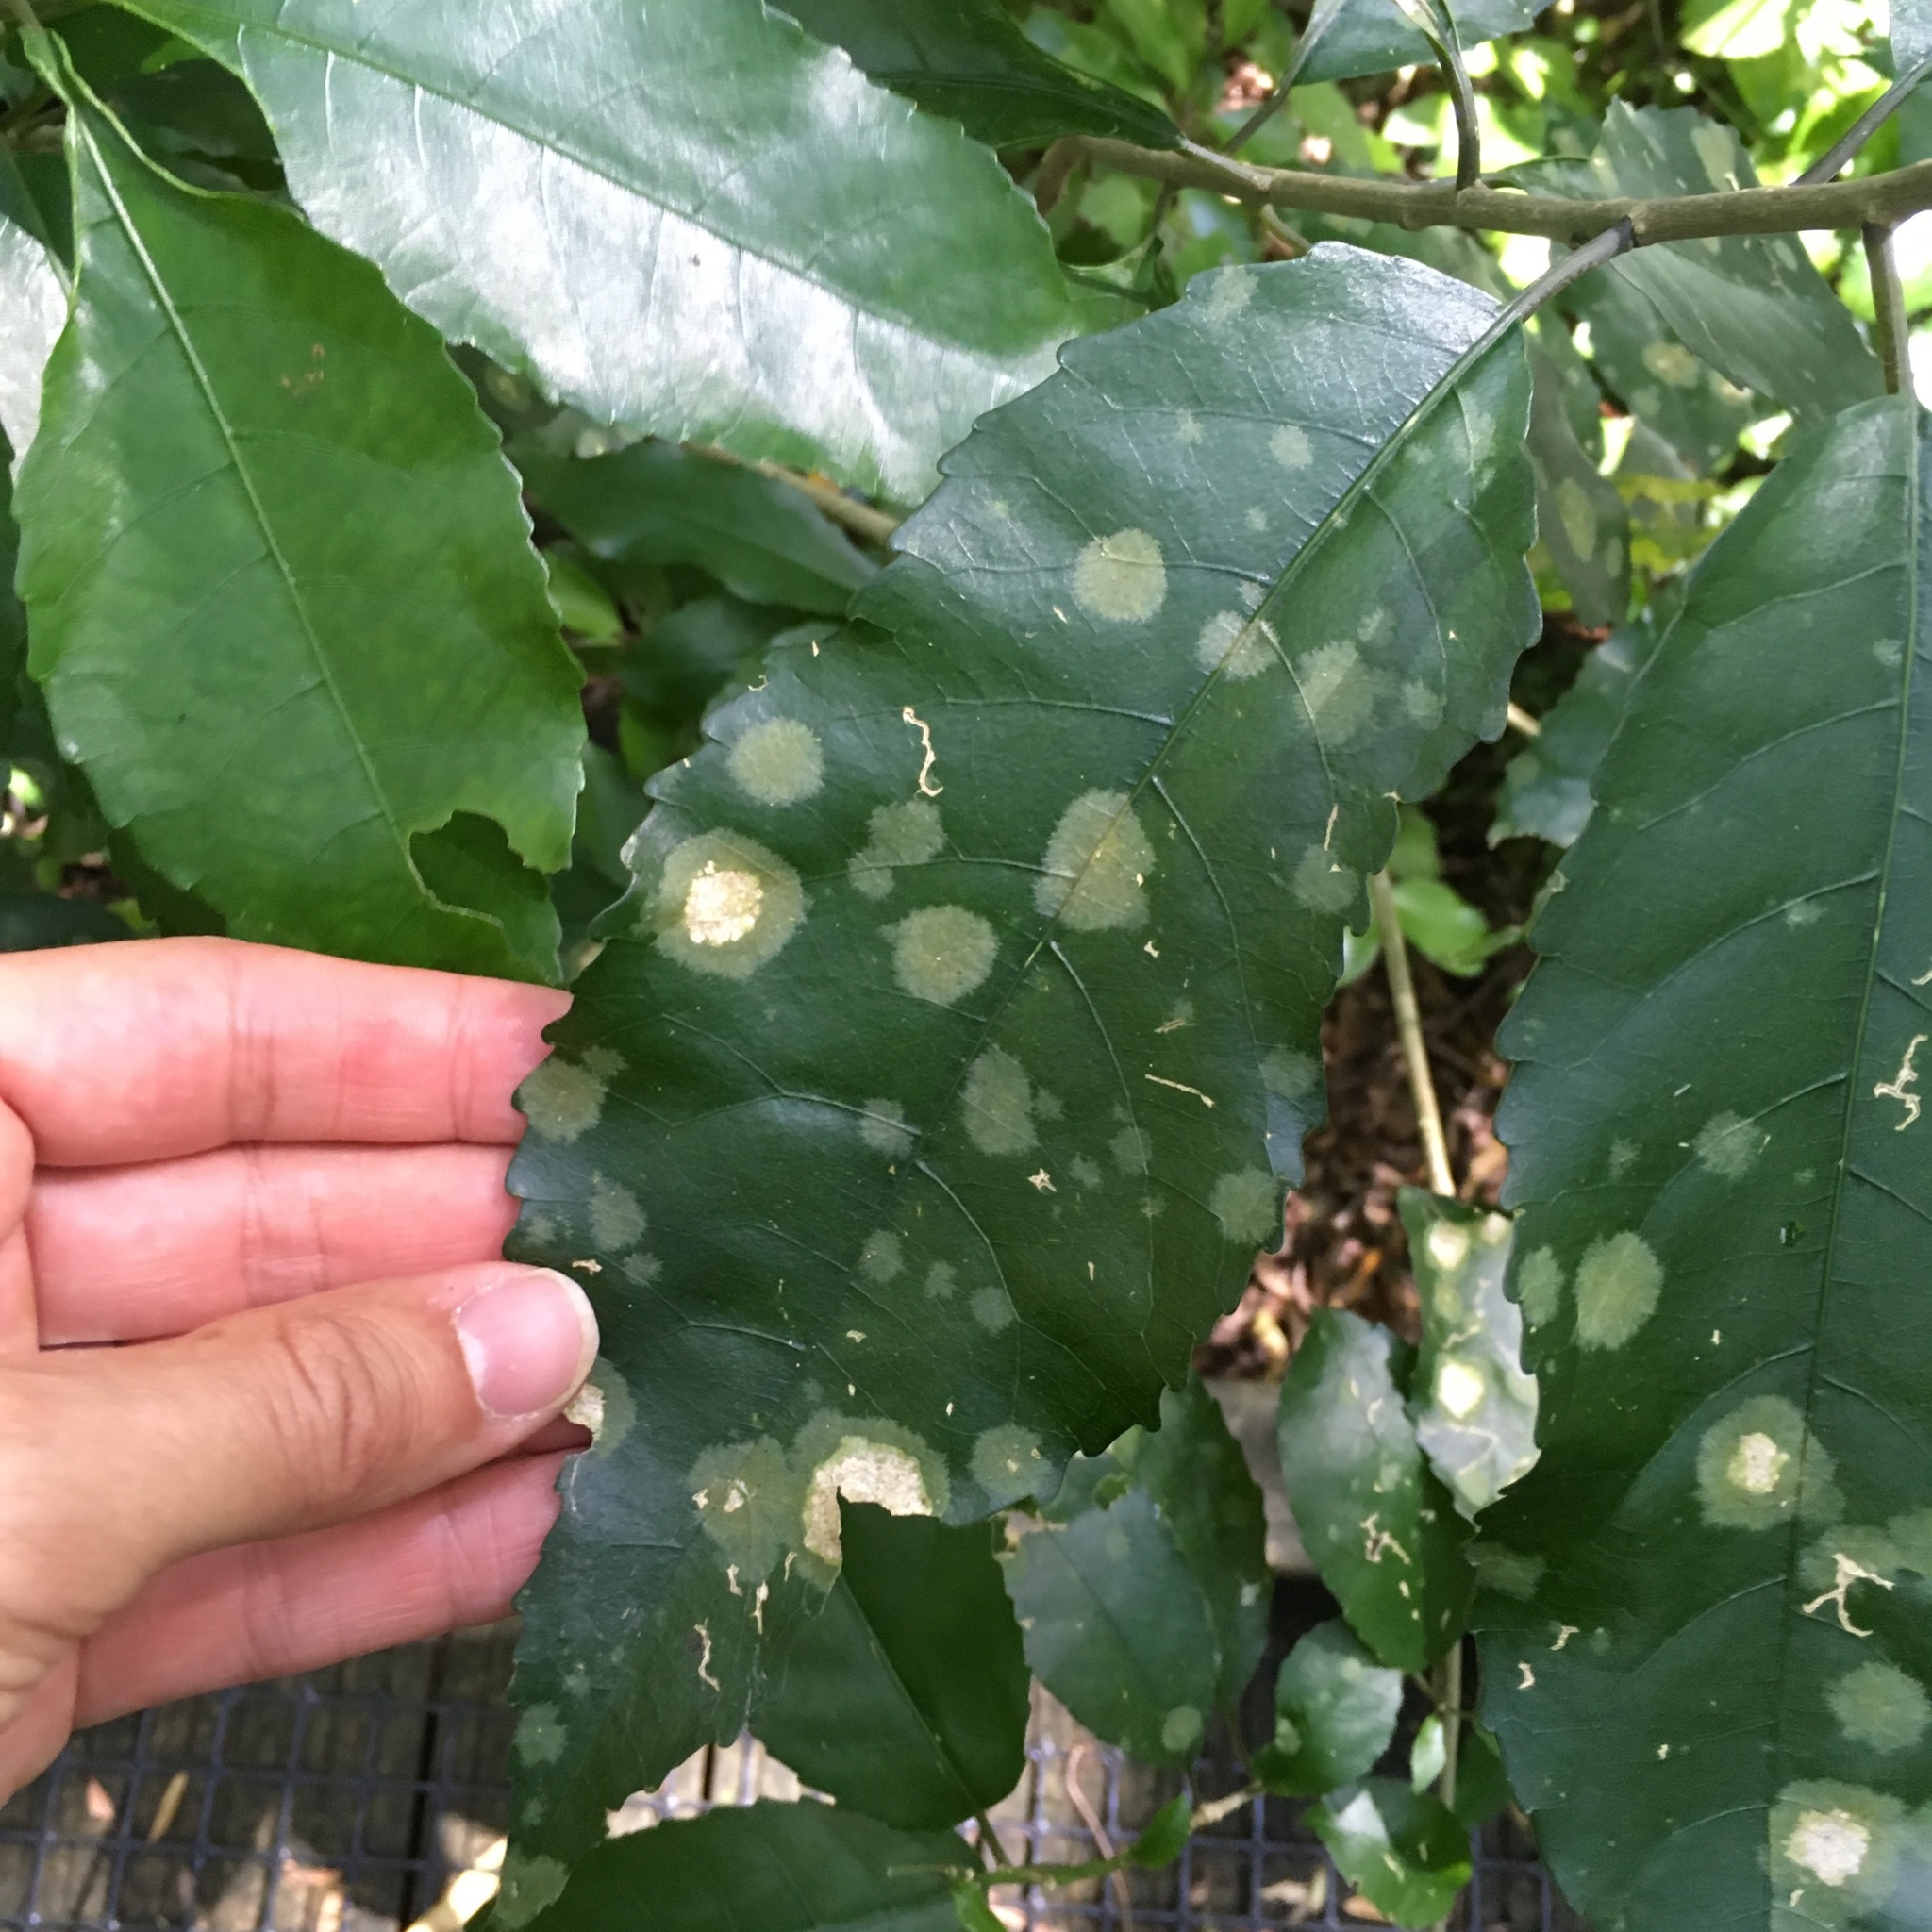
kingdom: Plantae
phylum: Chlorophyta
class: Ulvophyceae
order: Trentepohliales
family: Trentepohliaceae
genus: Cephaleuros
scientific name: Cephaleuros
